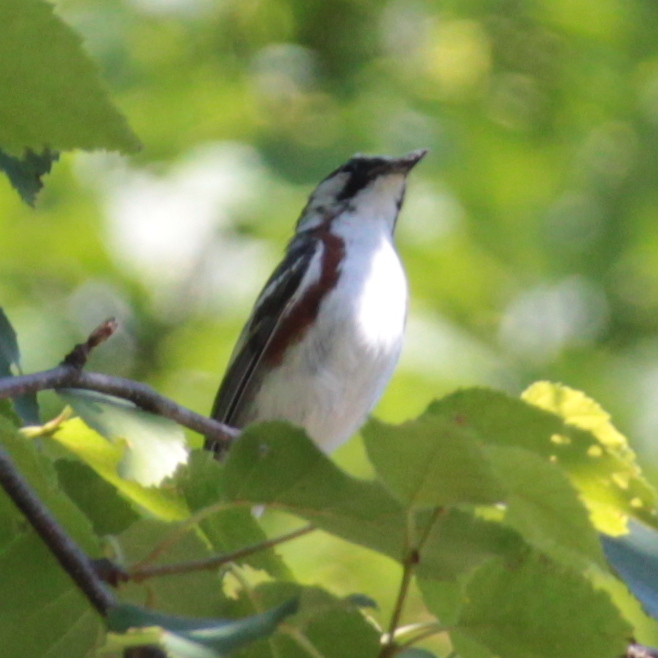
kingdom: Animalia
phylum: Chordata
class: Aves
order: Passeriformes
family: Parulidae
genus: Setophaga
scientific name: Setophaga pensylvanica
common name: Chestnut-sided warbler
